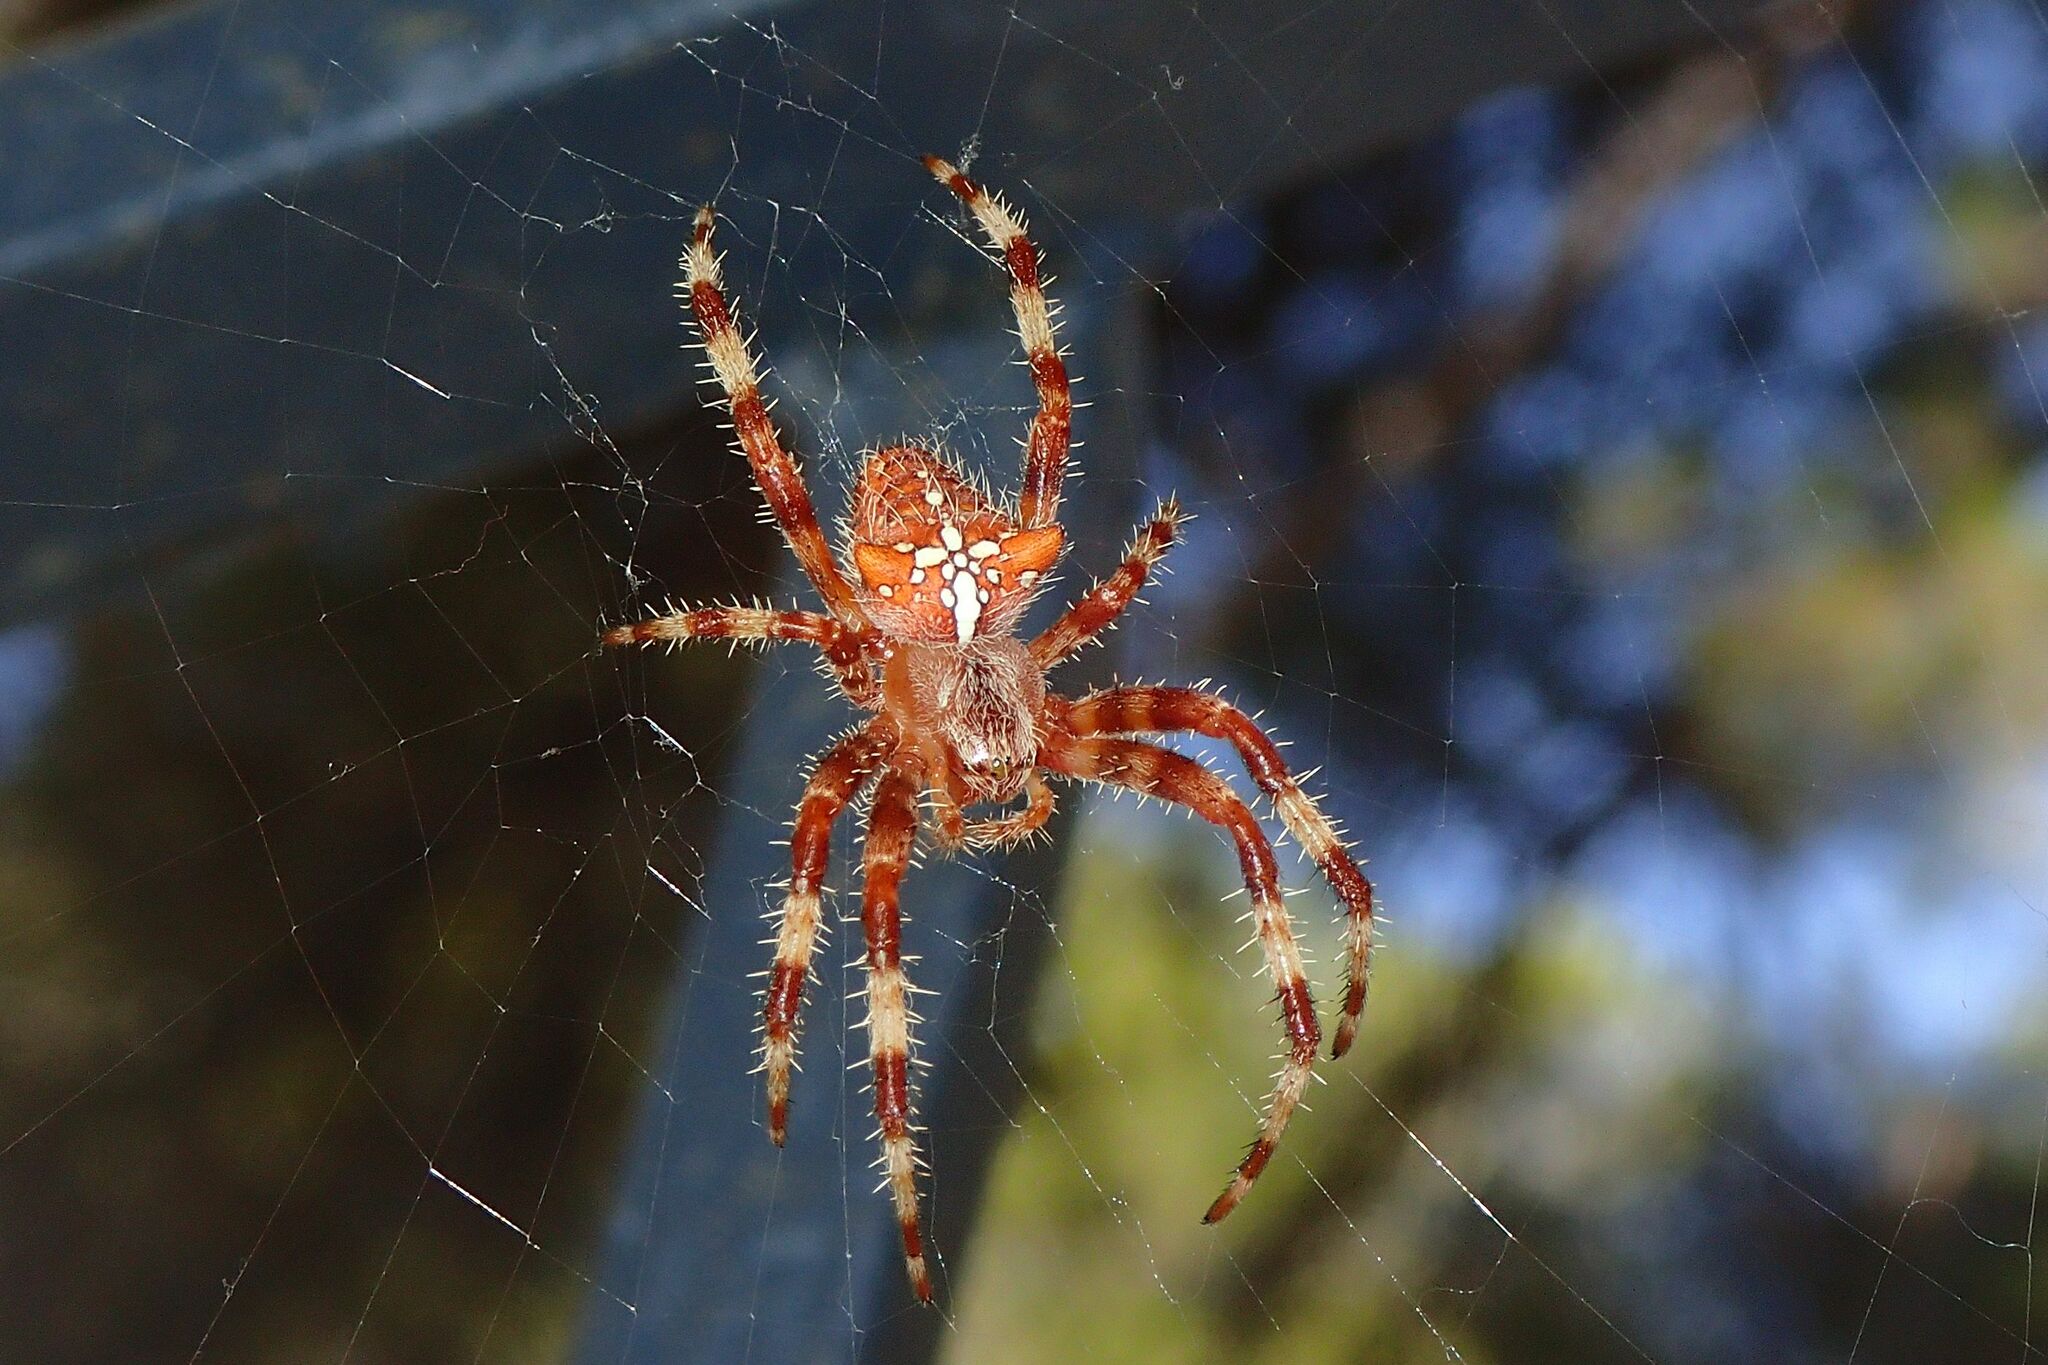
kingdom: Animalia
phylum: Arthropoda
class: Arachnida
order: Araneae
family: Araneidae
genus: Araneus
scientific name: Araneus pallidus
